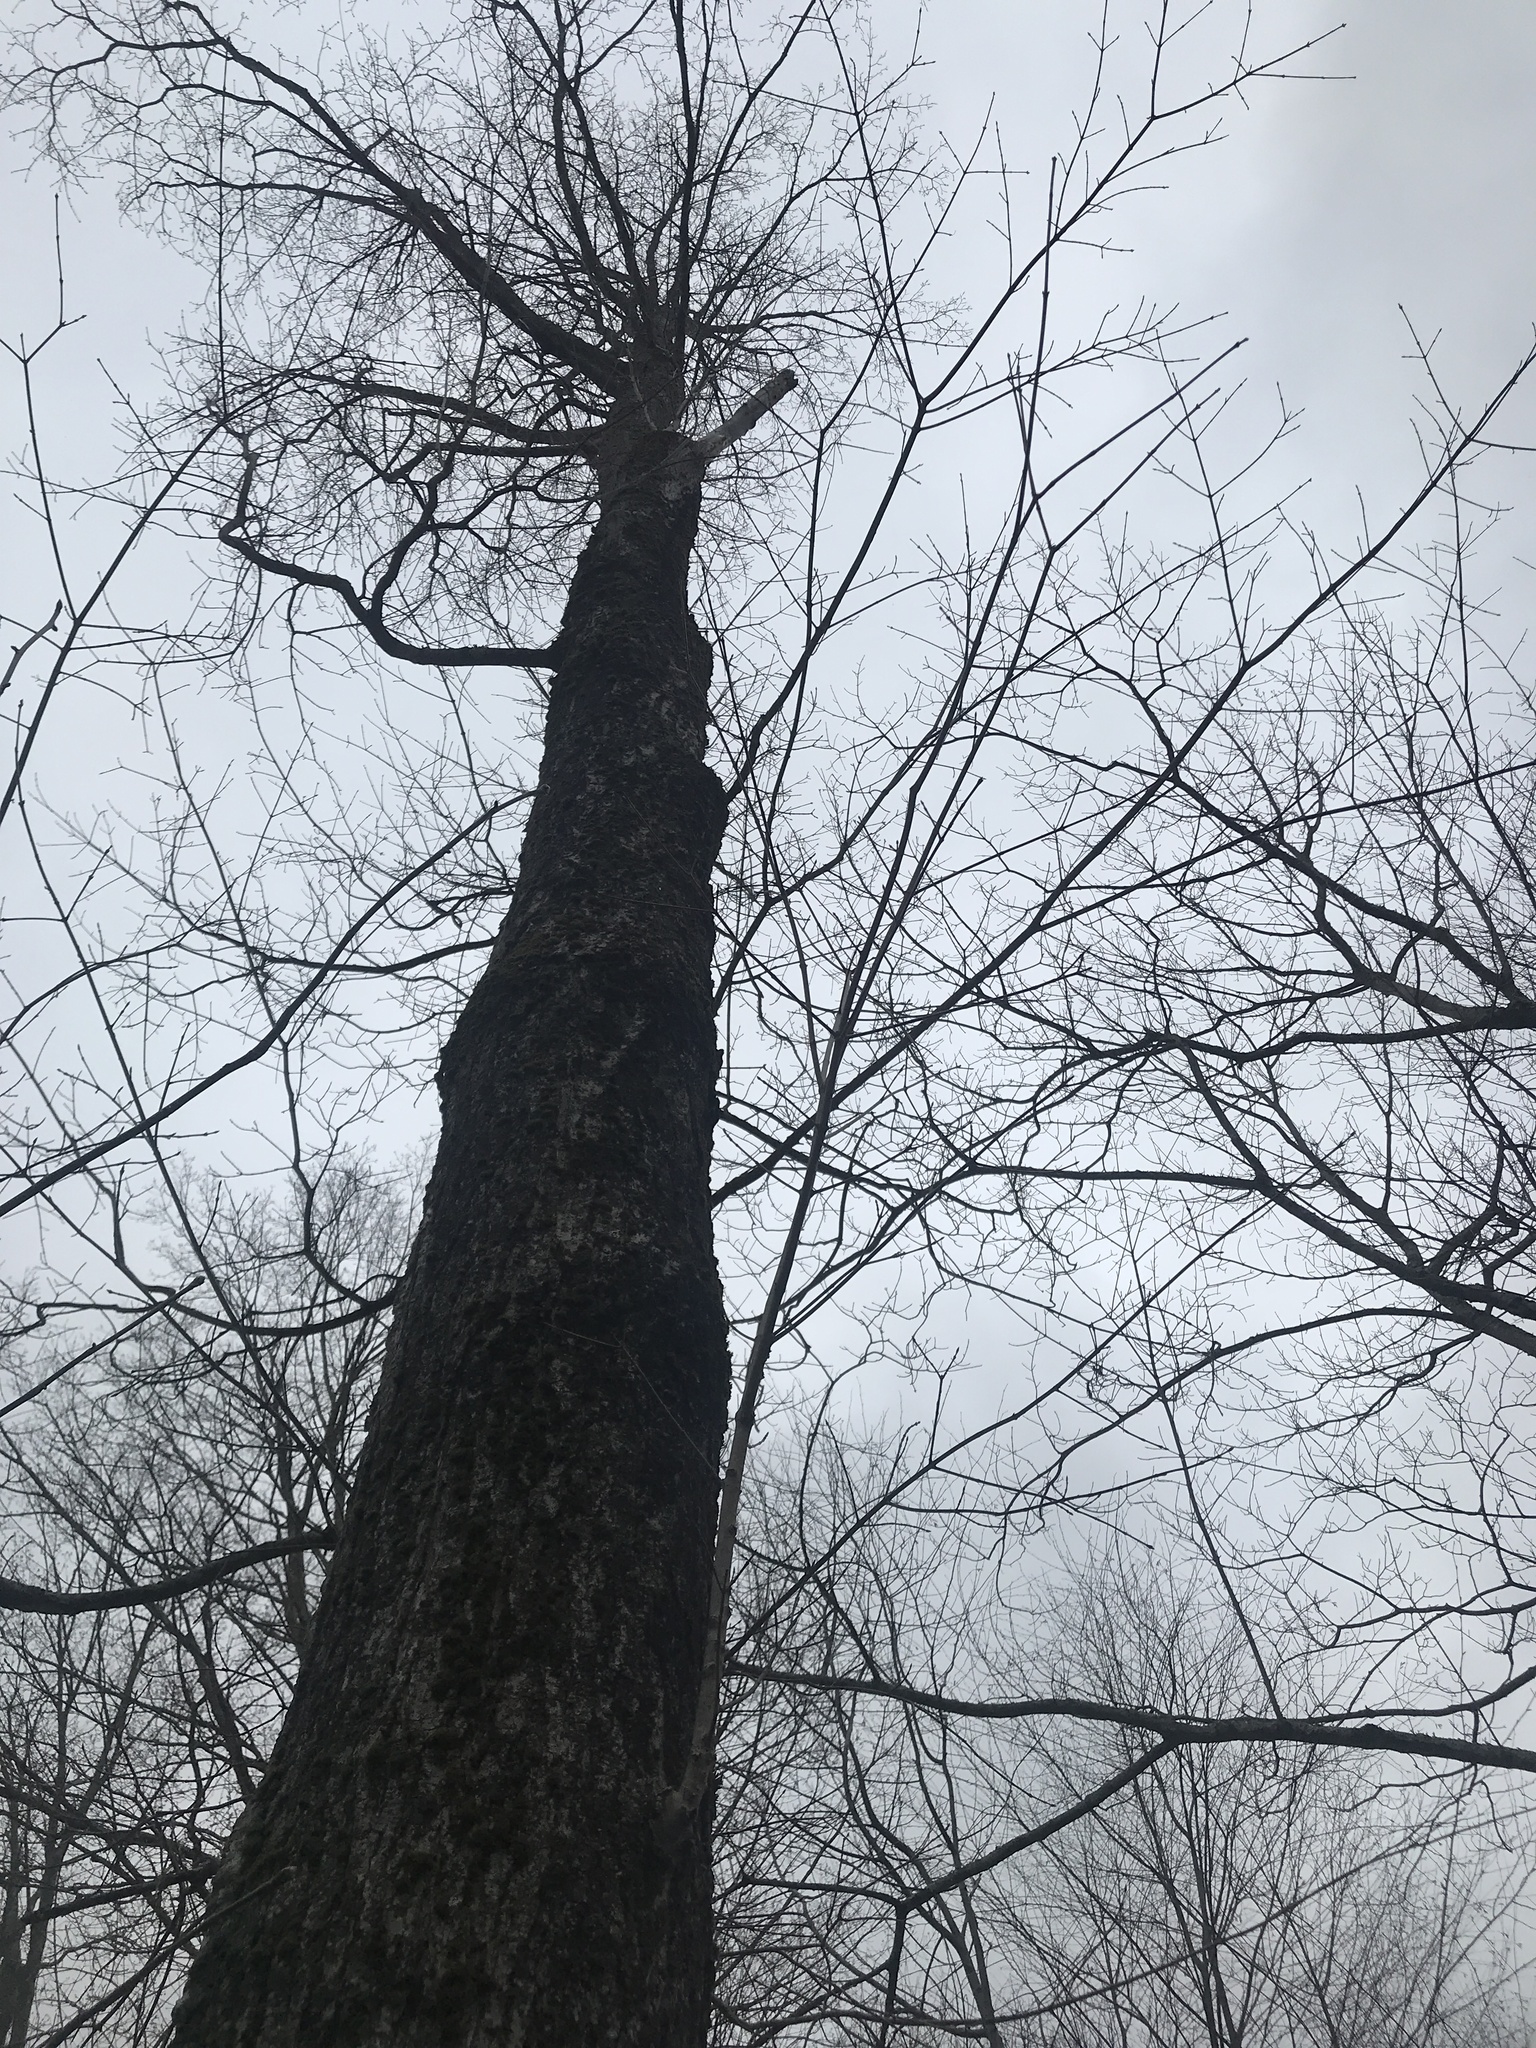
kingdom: Plantae
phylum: Tracheophyta
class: Magnoliopsida
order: Sapindales
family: Sapindaceae
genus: Acer
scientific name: Acer saccharum
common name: Sugar maple
